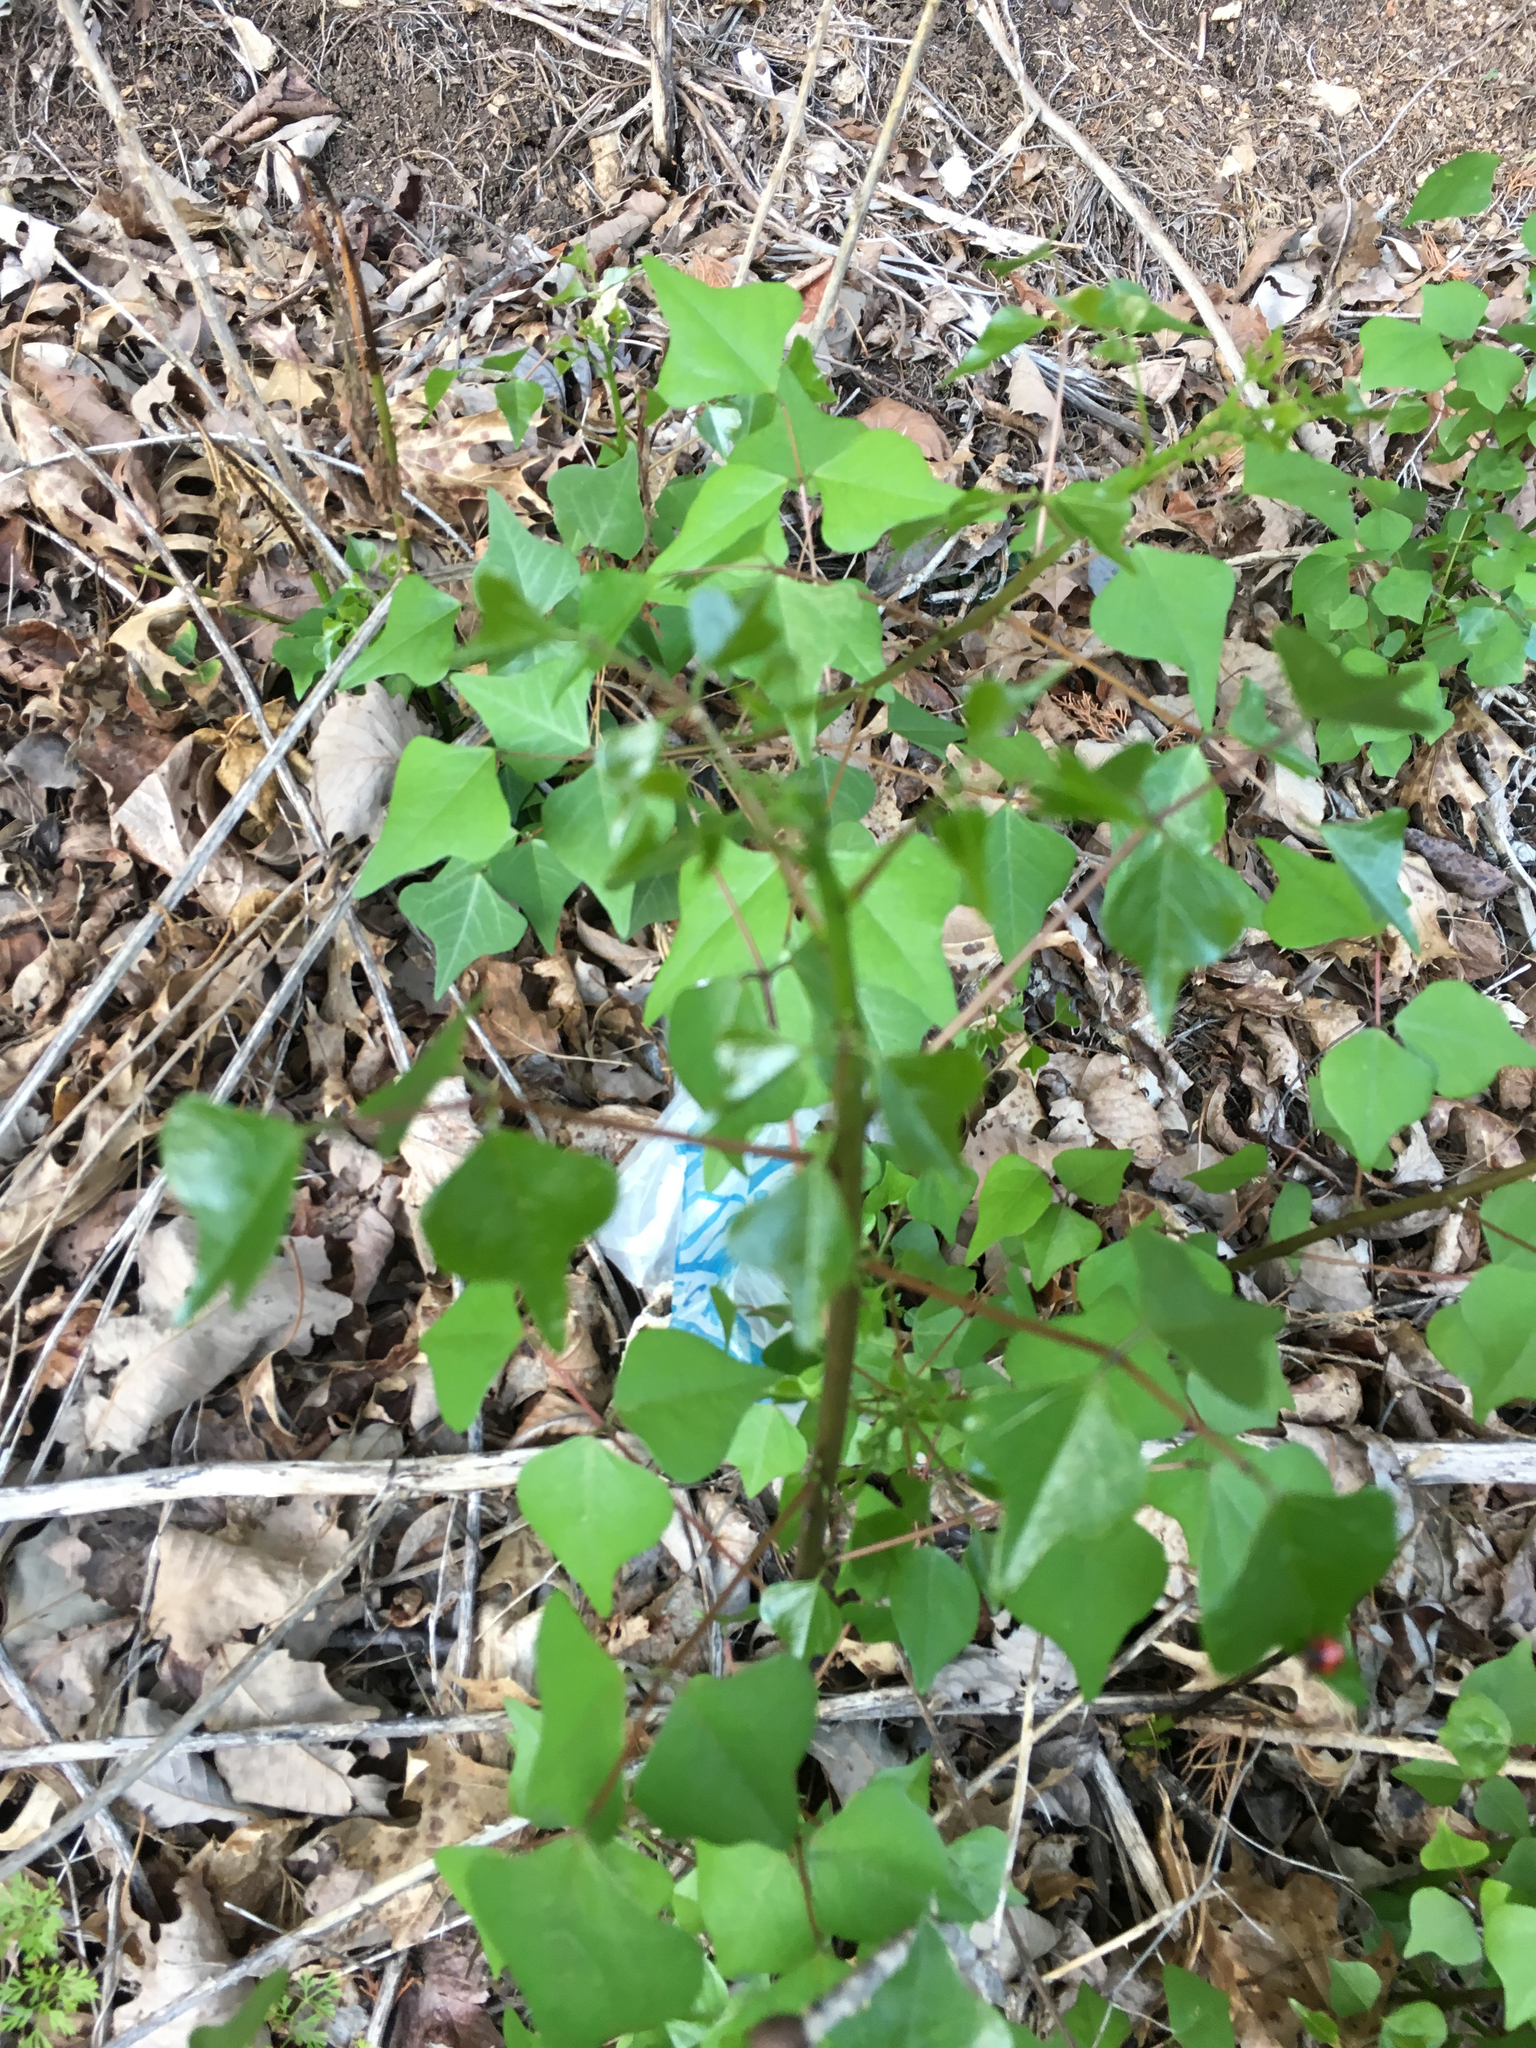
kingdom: Plantae
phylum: Tracheophyta
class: Magnoliopsida
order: Fabales
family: Fabaceae
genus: Erythrina
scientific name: Erythrina herbacea
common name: Coral-bean
